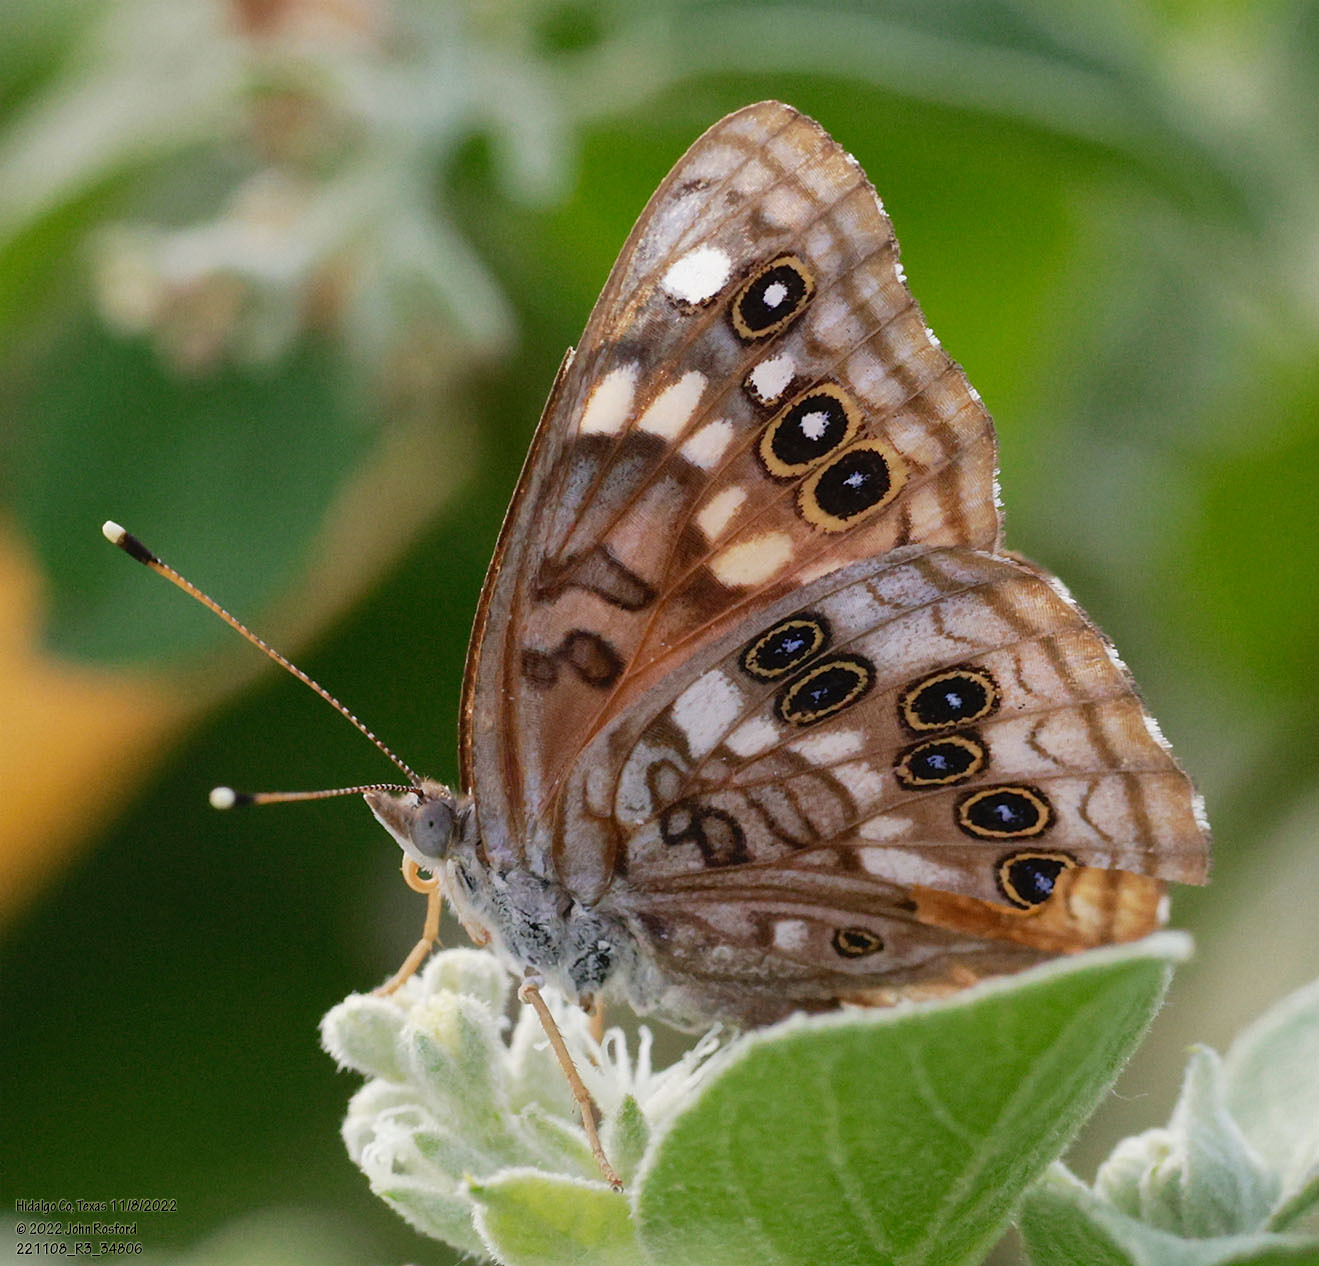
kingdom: Animalia
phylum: Arthropoda
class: Insecta
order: Lepidoptera
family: Nymphalidae
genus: Asterocampa
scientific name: Asterocampa celtis
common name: Hackberry emperor
